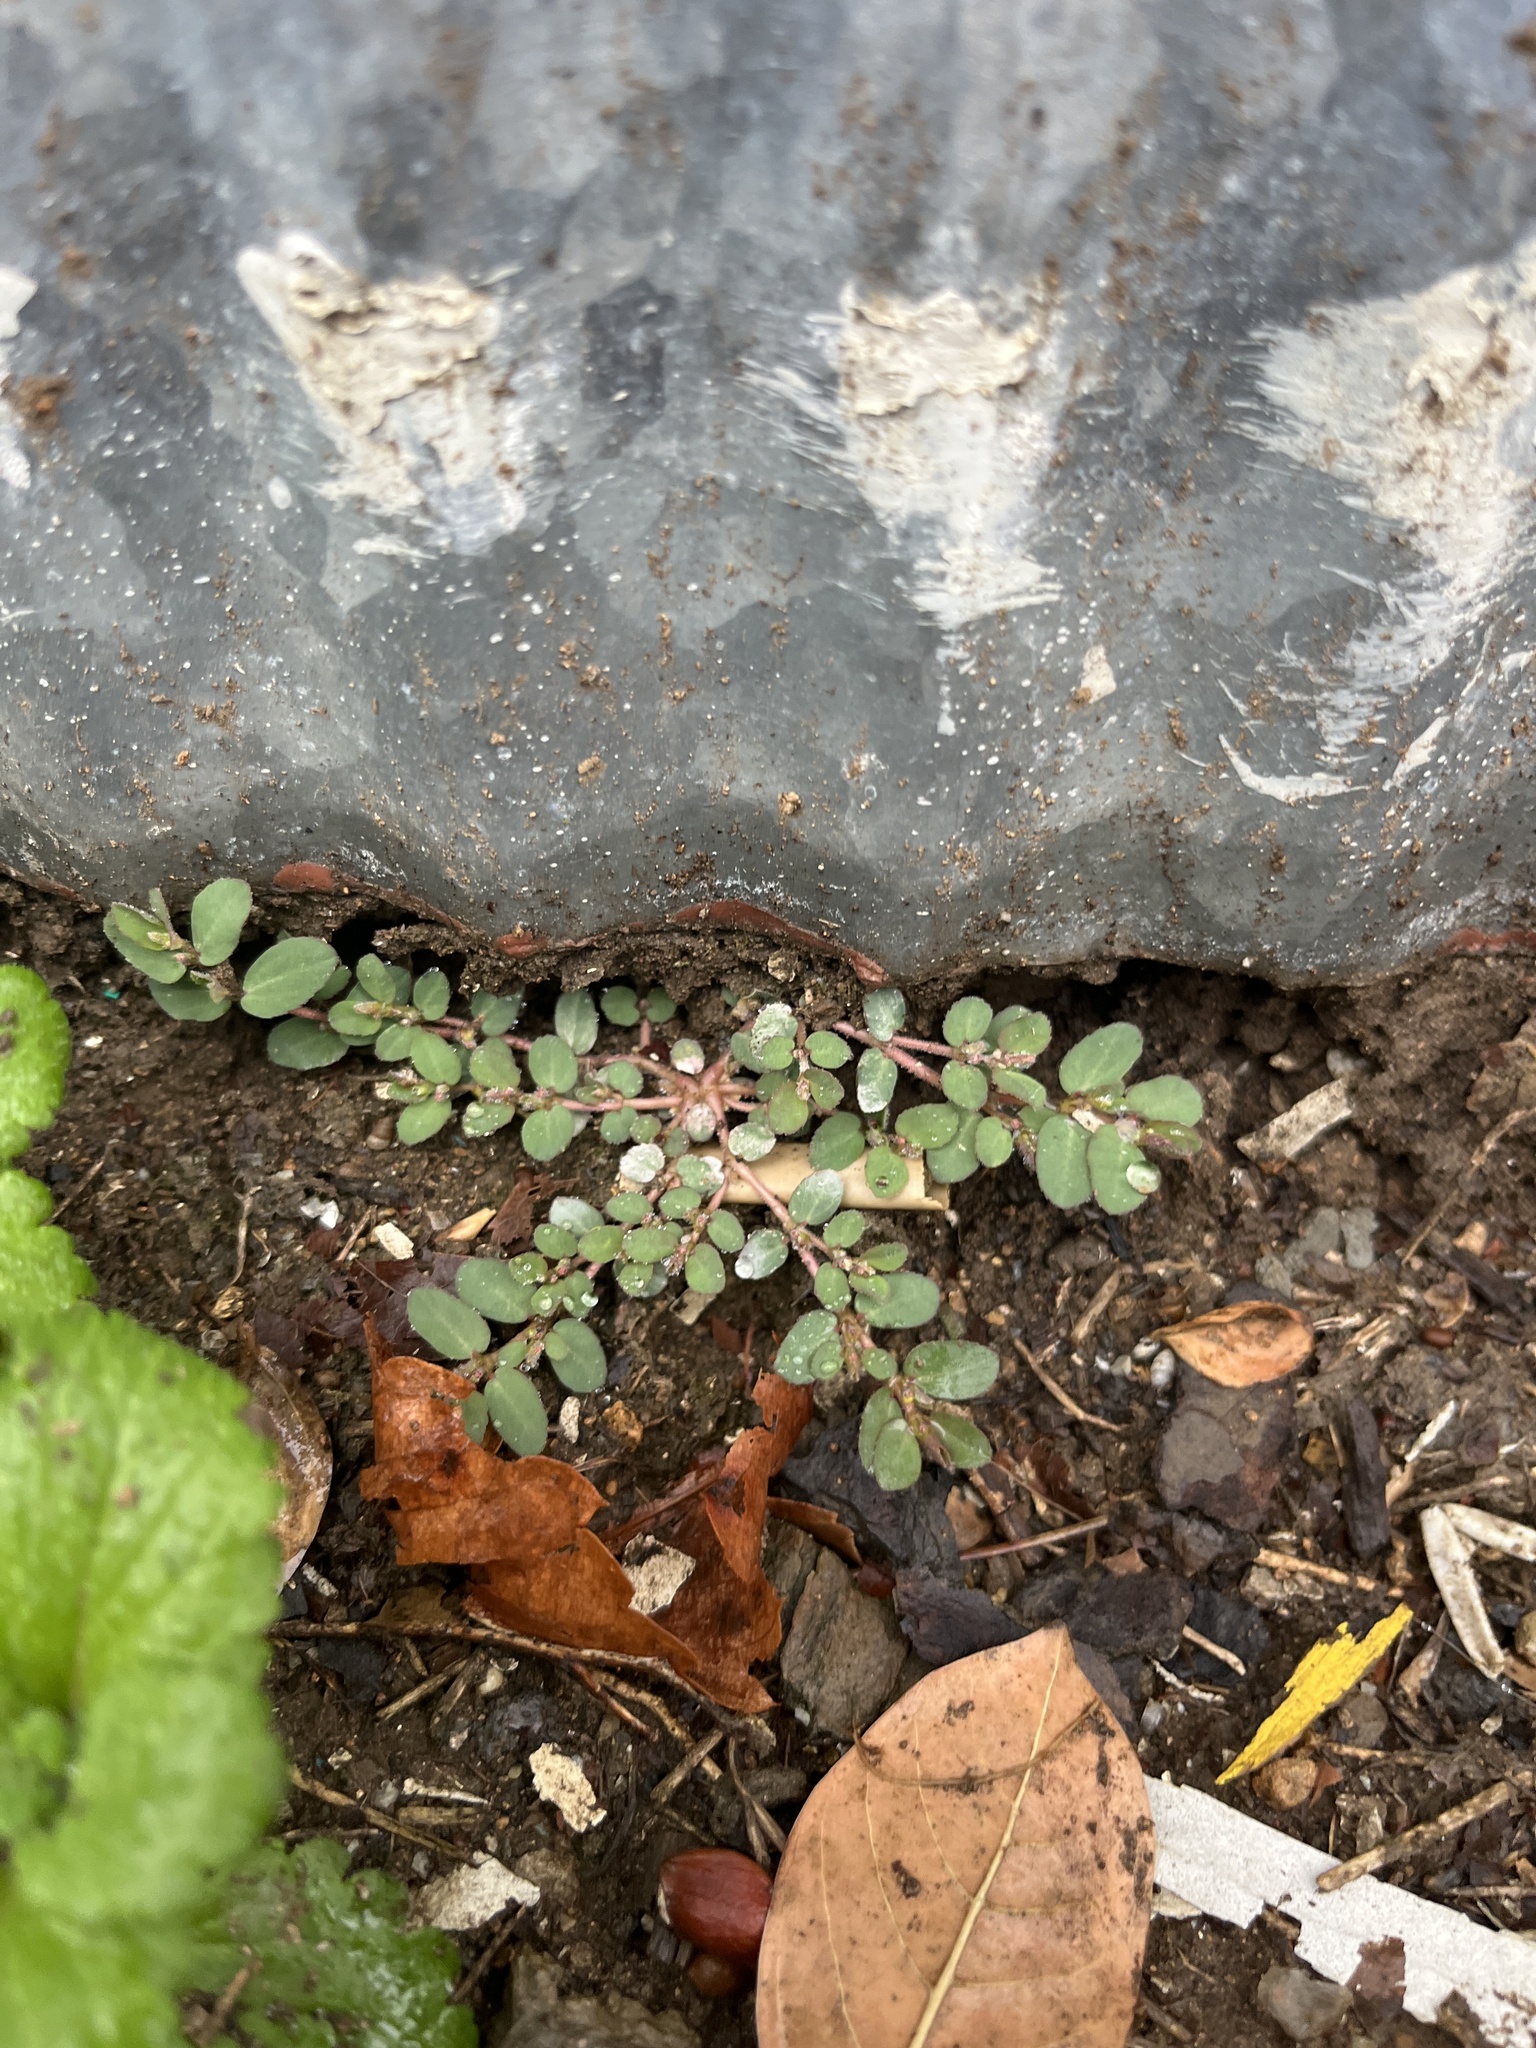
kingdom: Plantae
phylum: Tracheophyta
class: Magnoliopsida
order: Malpighiales
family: Euphorbiaceae
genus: Euphorbia
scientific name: Euphorbia prostrata
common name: Prostrate sandmat
